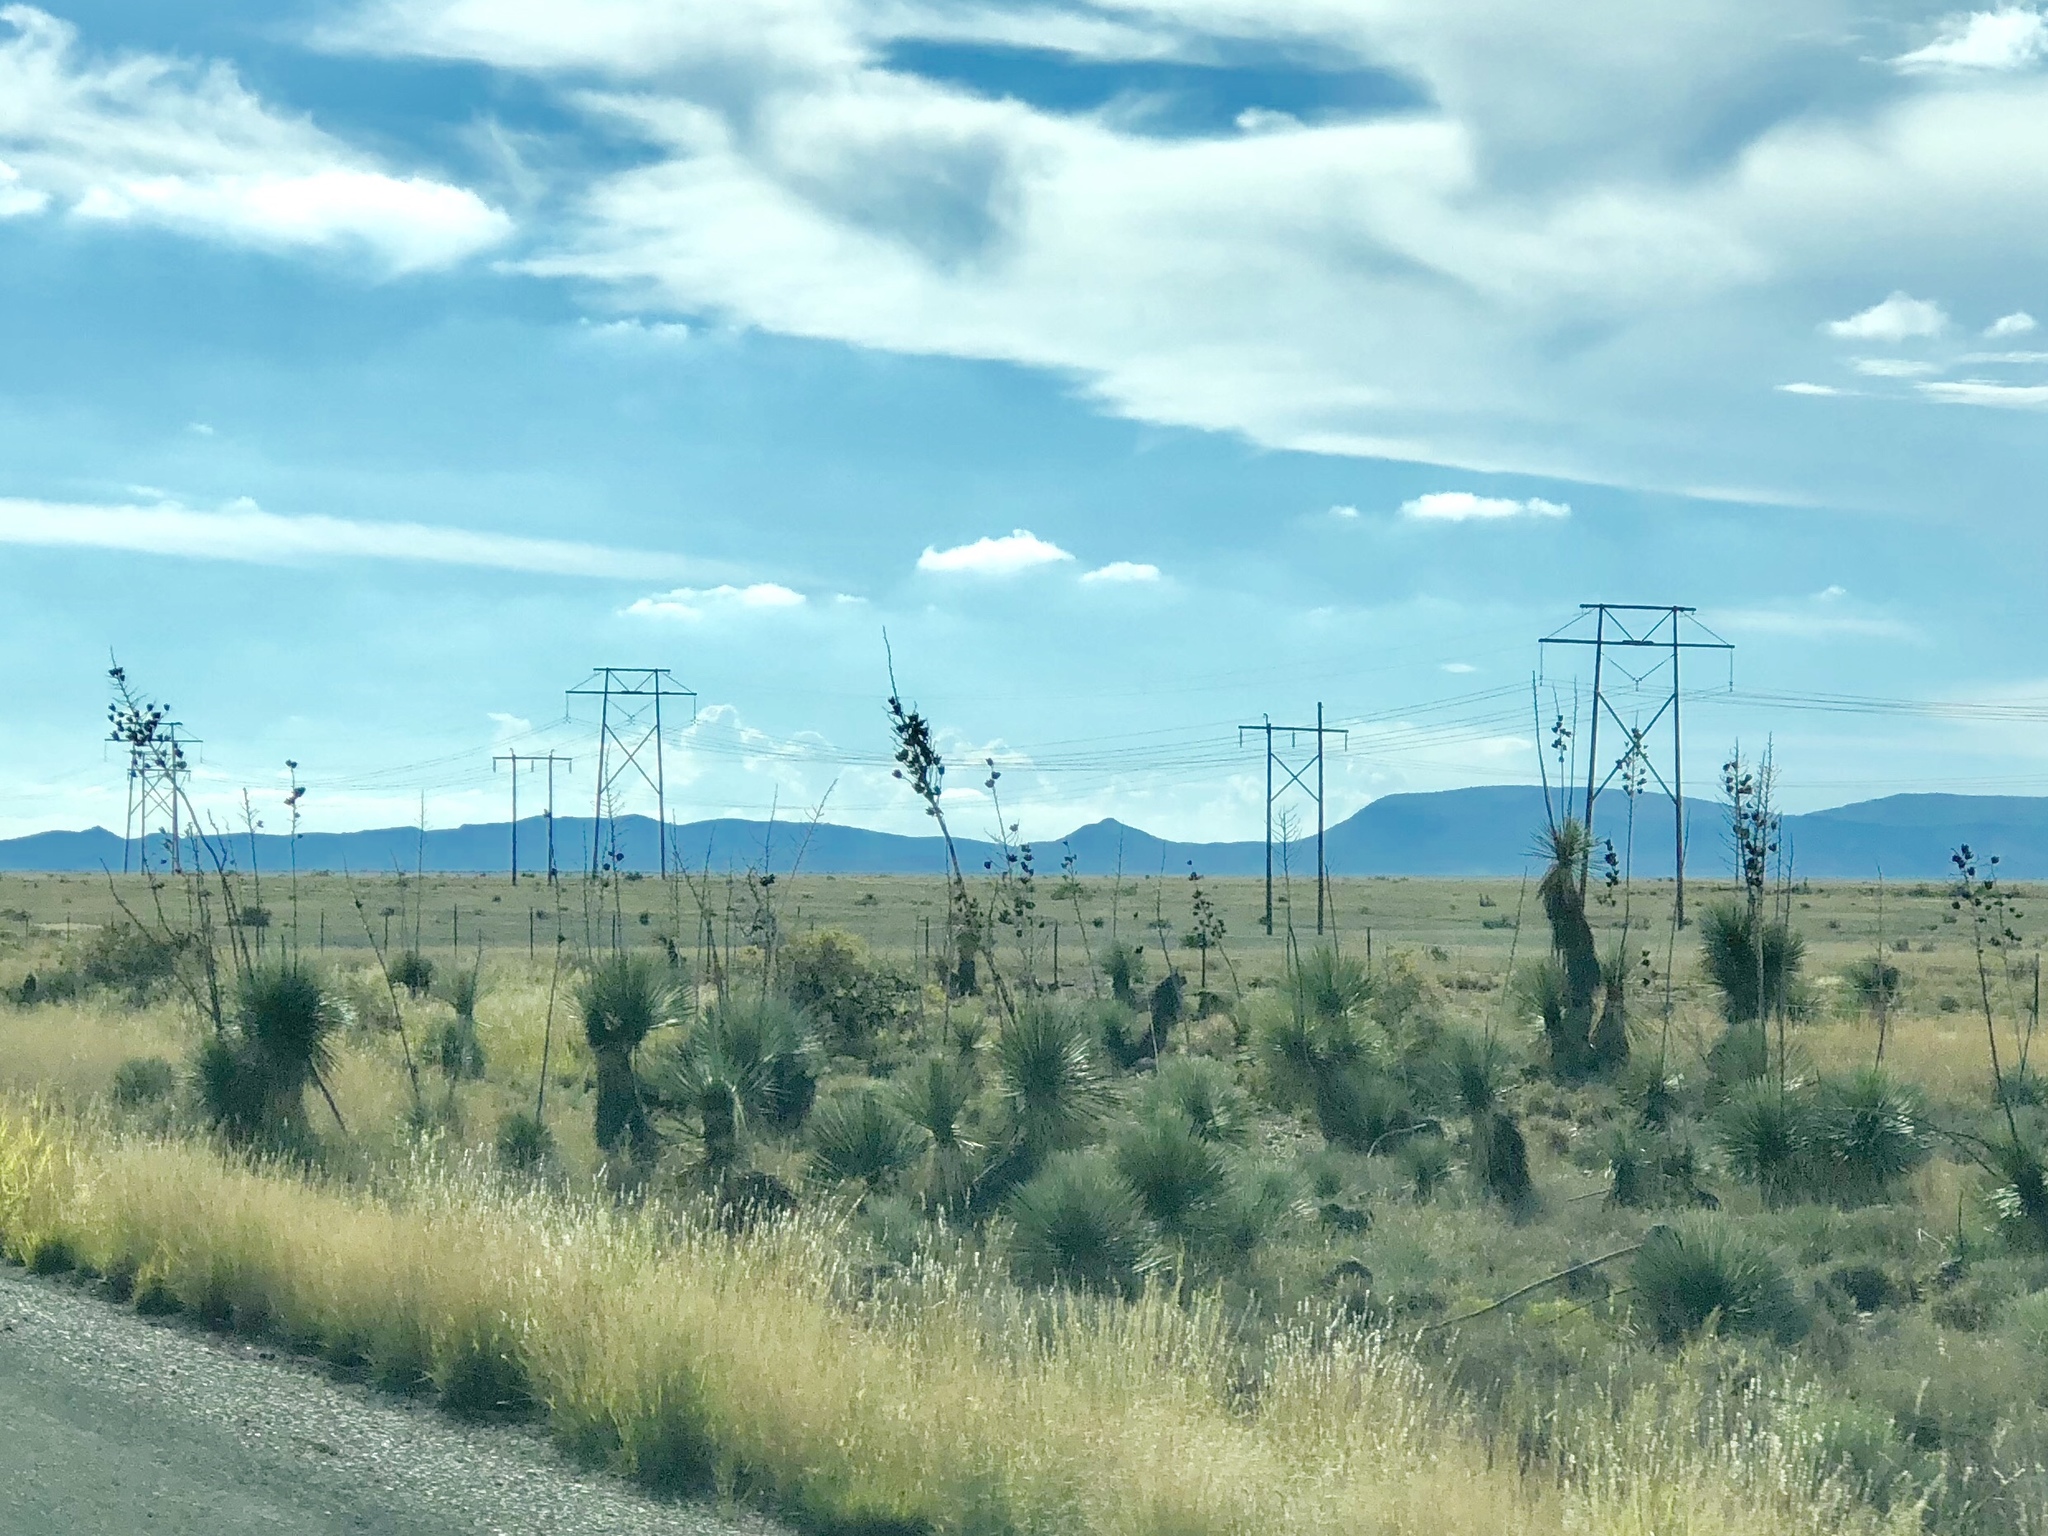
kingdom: Plantae
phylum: Tracheophyta
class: Liliopsida
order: Asparagales
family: Asparagaceae
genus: Yucca
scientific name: Yucca elata
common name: Palmella
